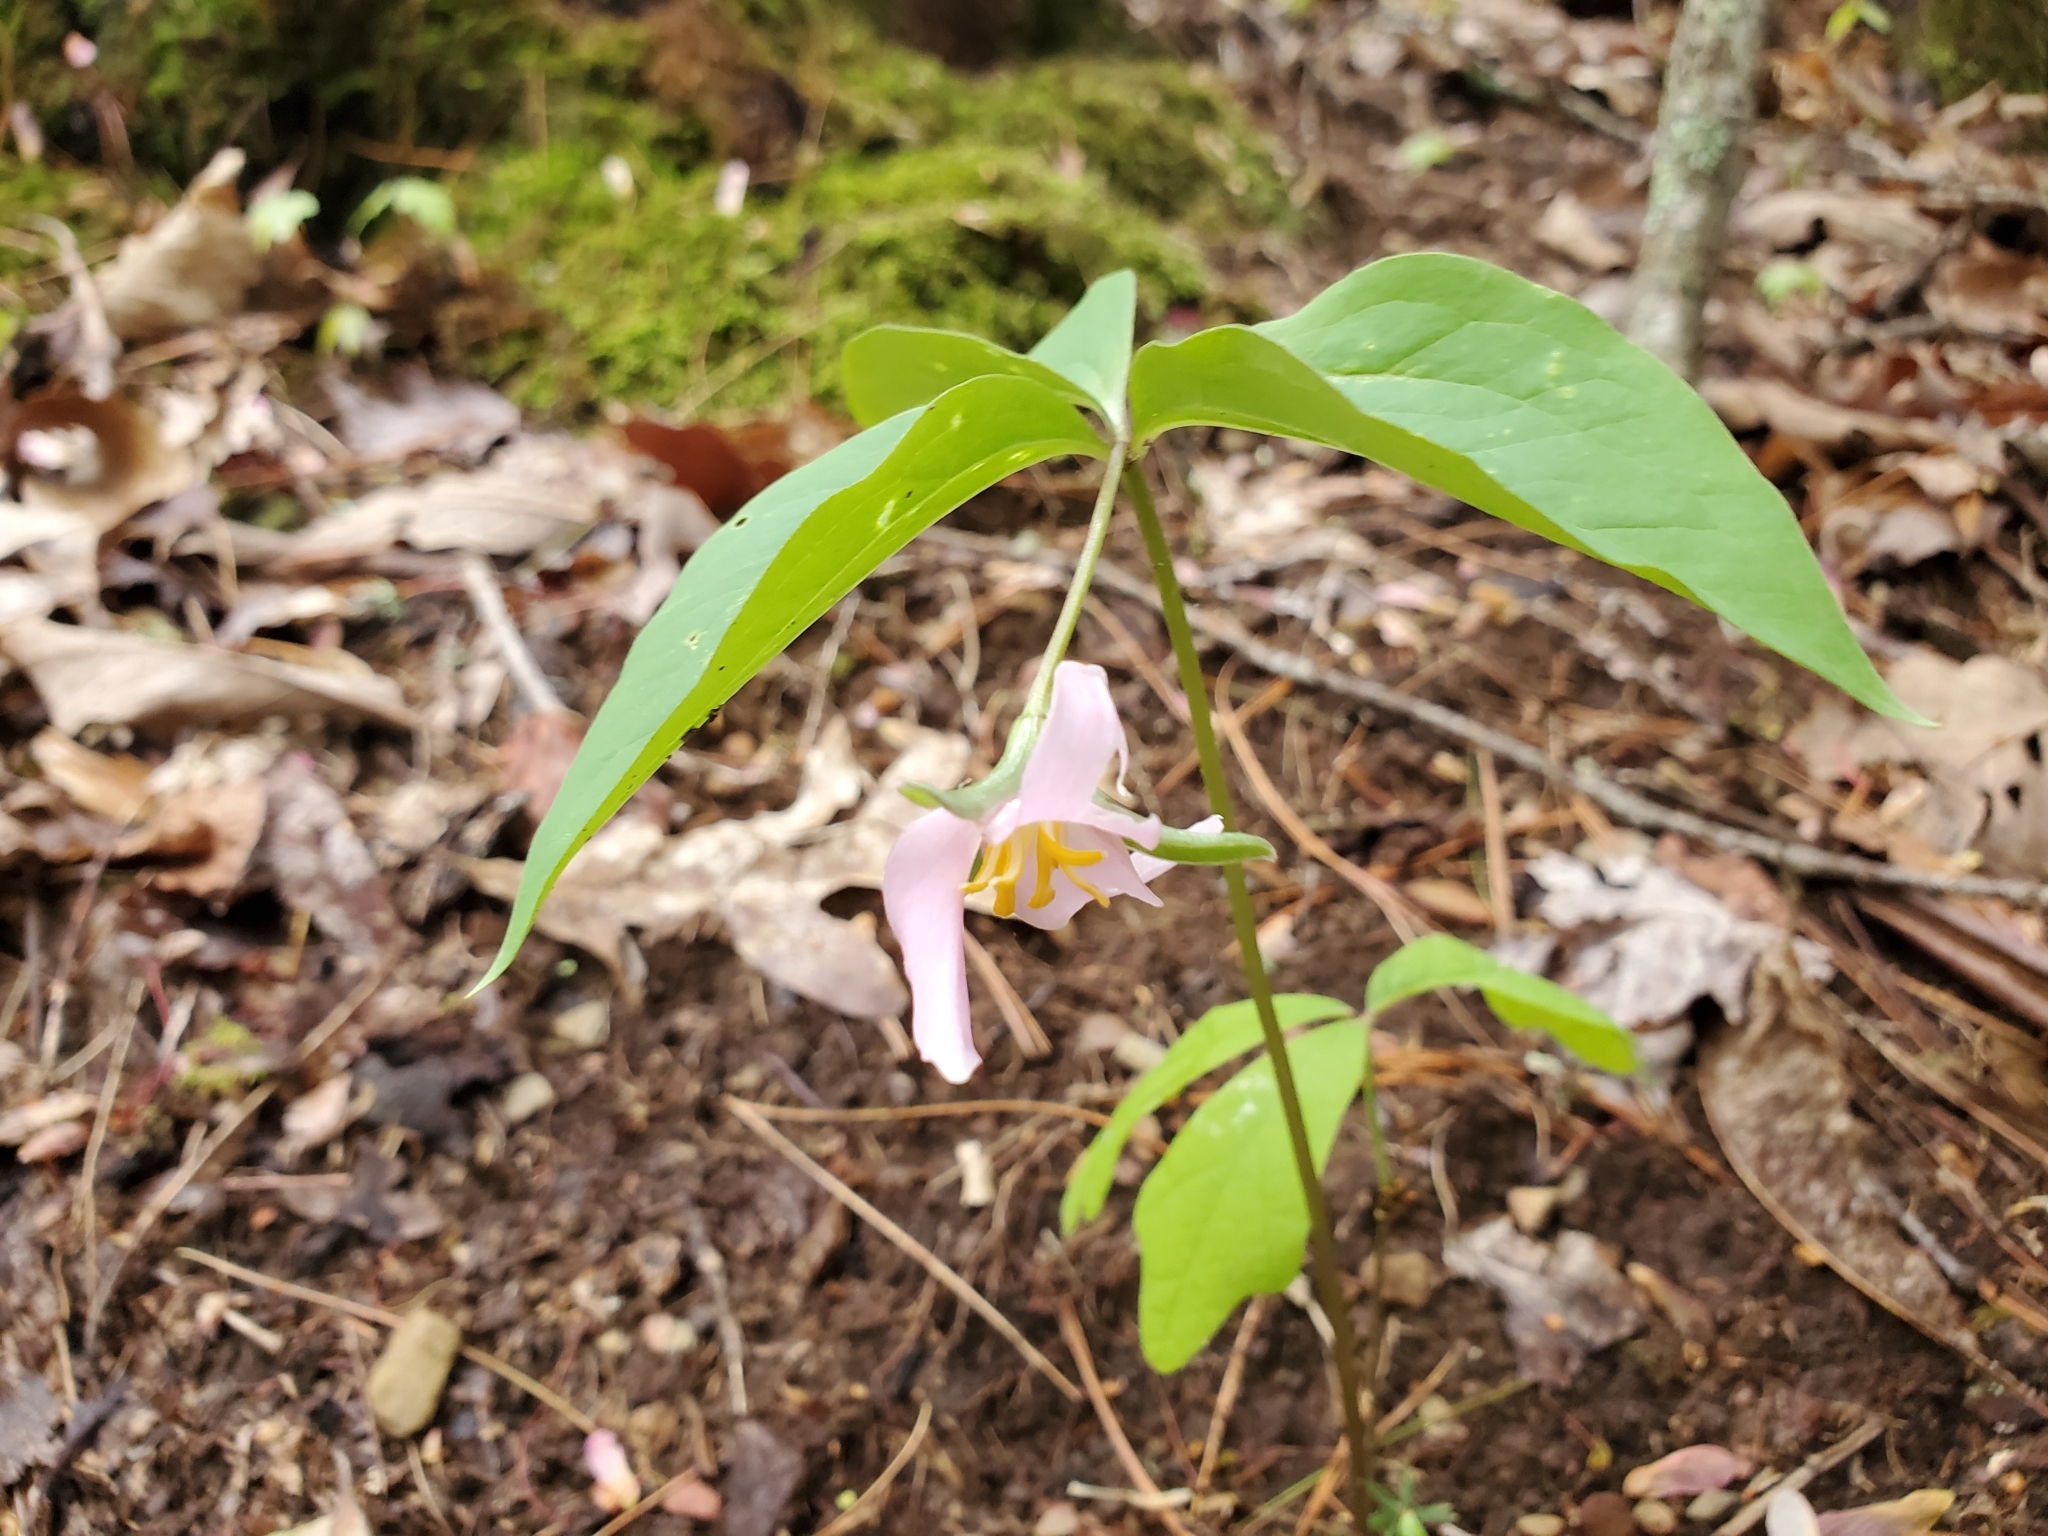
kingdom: Plantae
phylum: Tracheophyta
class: Liliopsida
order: Liliales
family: Melanthiaceae
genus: Trillium
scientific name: Trillium catesbaei
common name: Bashful trillium
